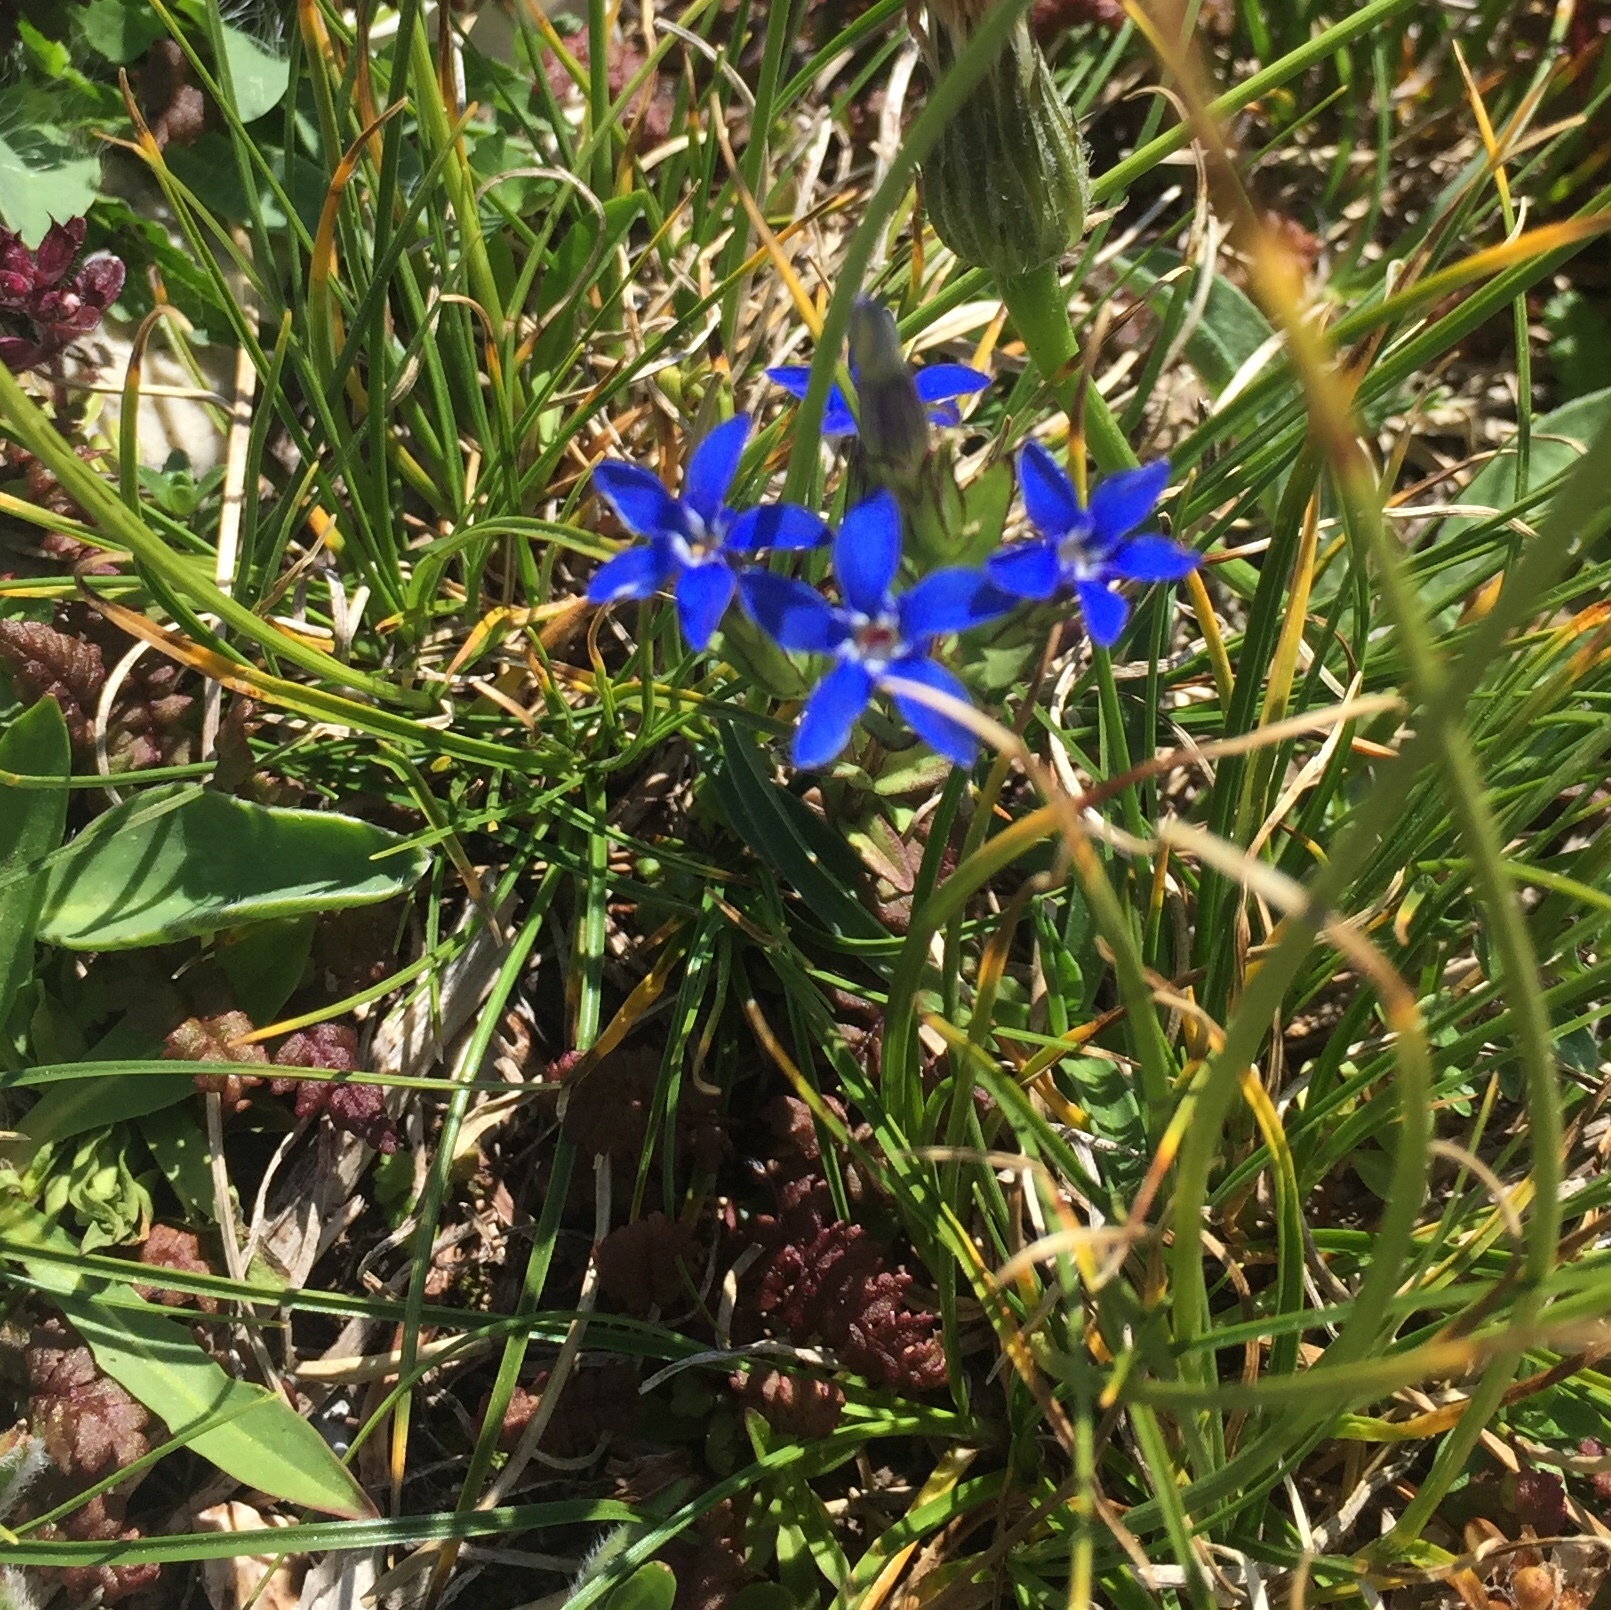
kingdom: Plantae
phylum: Tracheophyta
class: Magnoliopsida
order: Gentianales
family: Gentianaceae
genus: Gentiana
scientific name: Gentiana nivalis
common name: Alpine gentian
